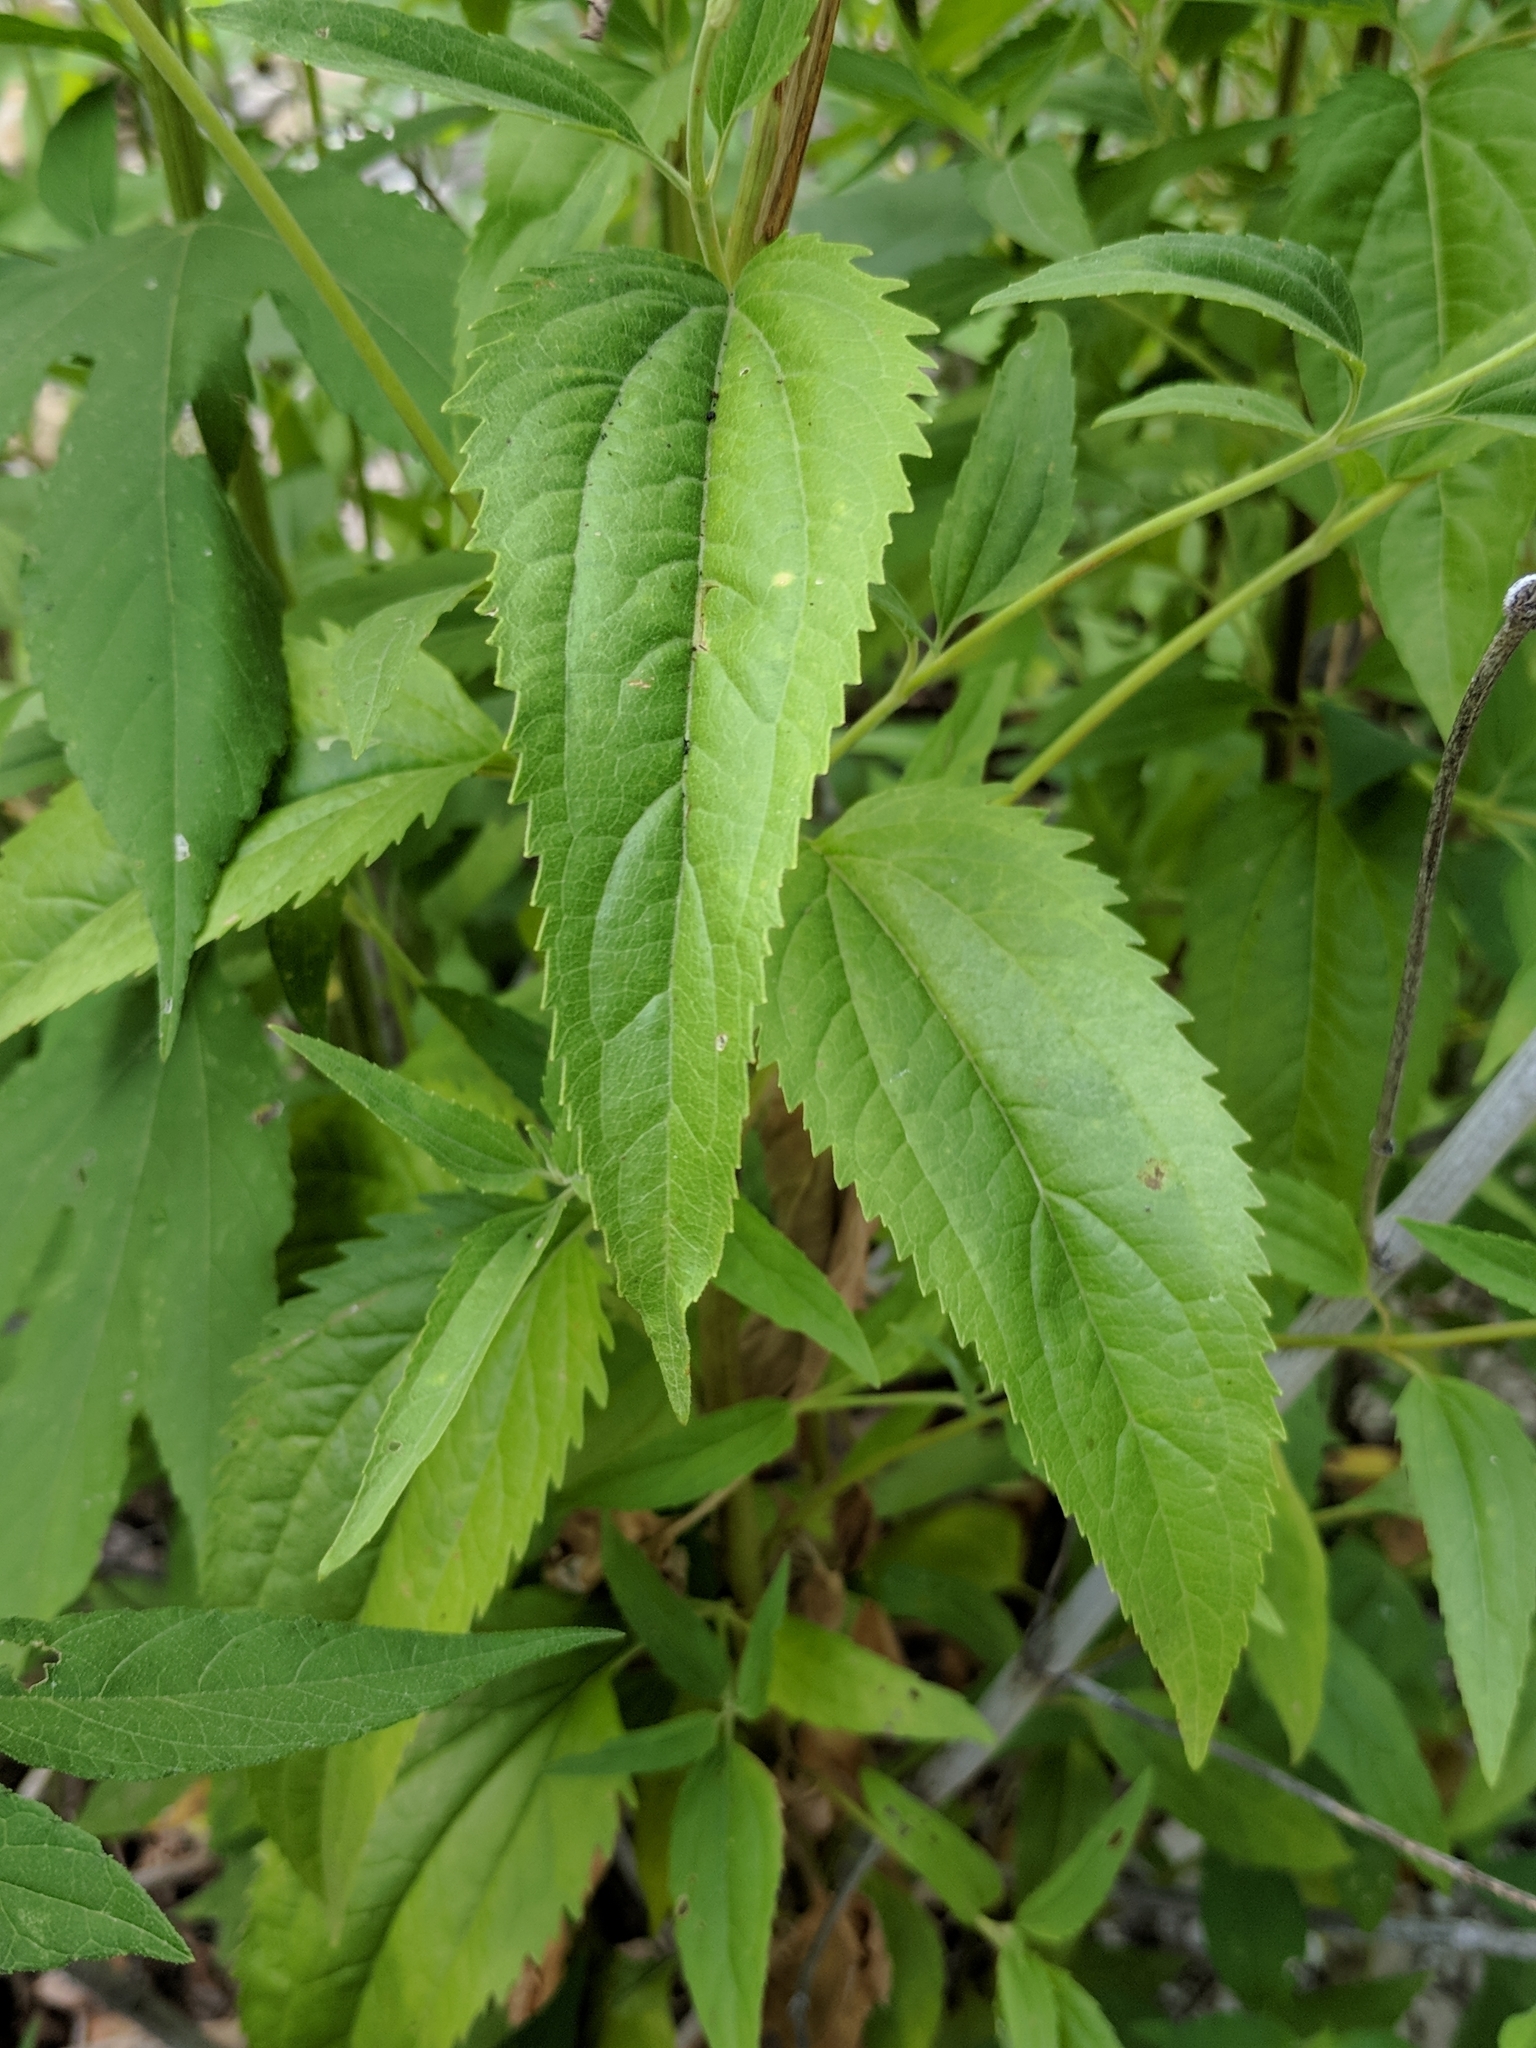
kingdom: Plantae
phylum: Tracheophyta
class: Magnoliopsida
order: Asterales
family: Asteraceae
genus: Eupatorium
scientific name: Eupatorium serotinum
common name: Late boneset
